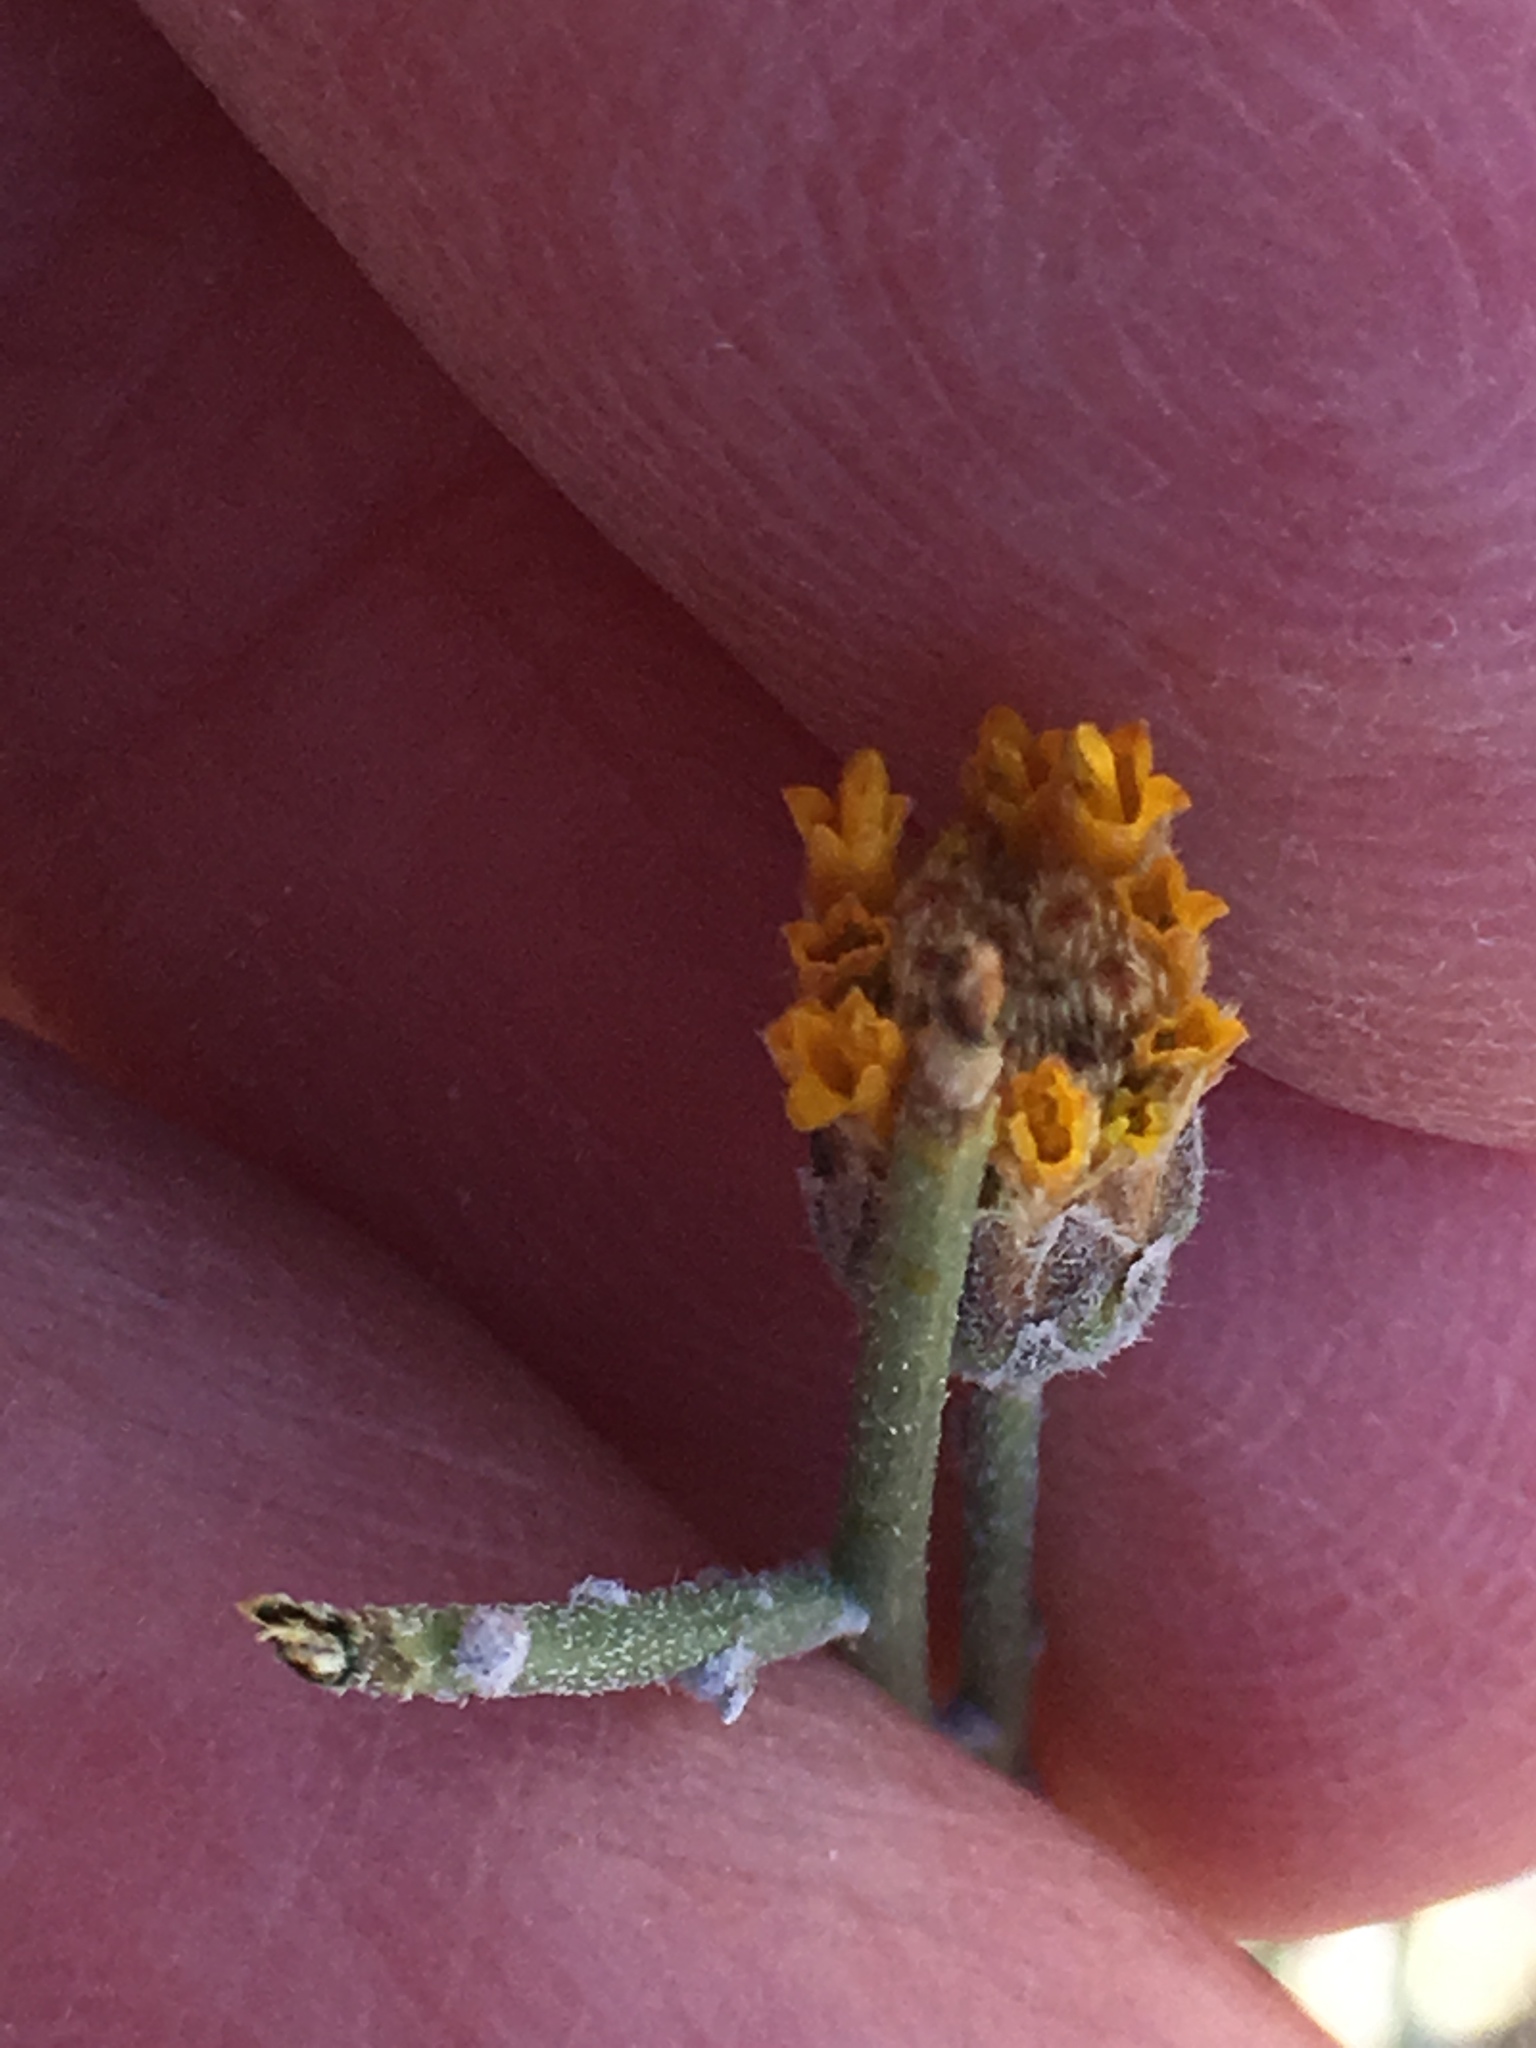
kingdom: Plantae
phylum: Tracheophyta
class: Magnoliopsida
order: Asterales
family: Asteraceae
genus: Bebbia
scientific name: Bebbia juncea
